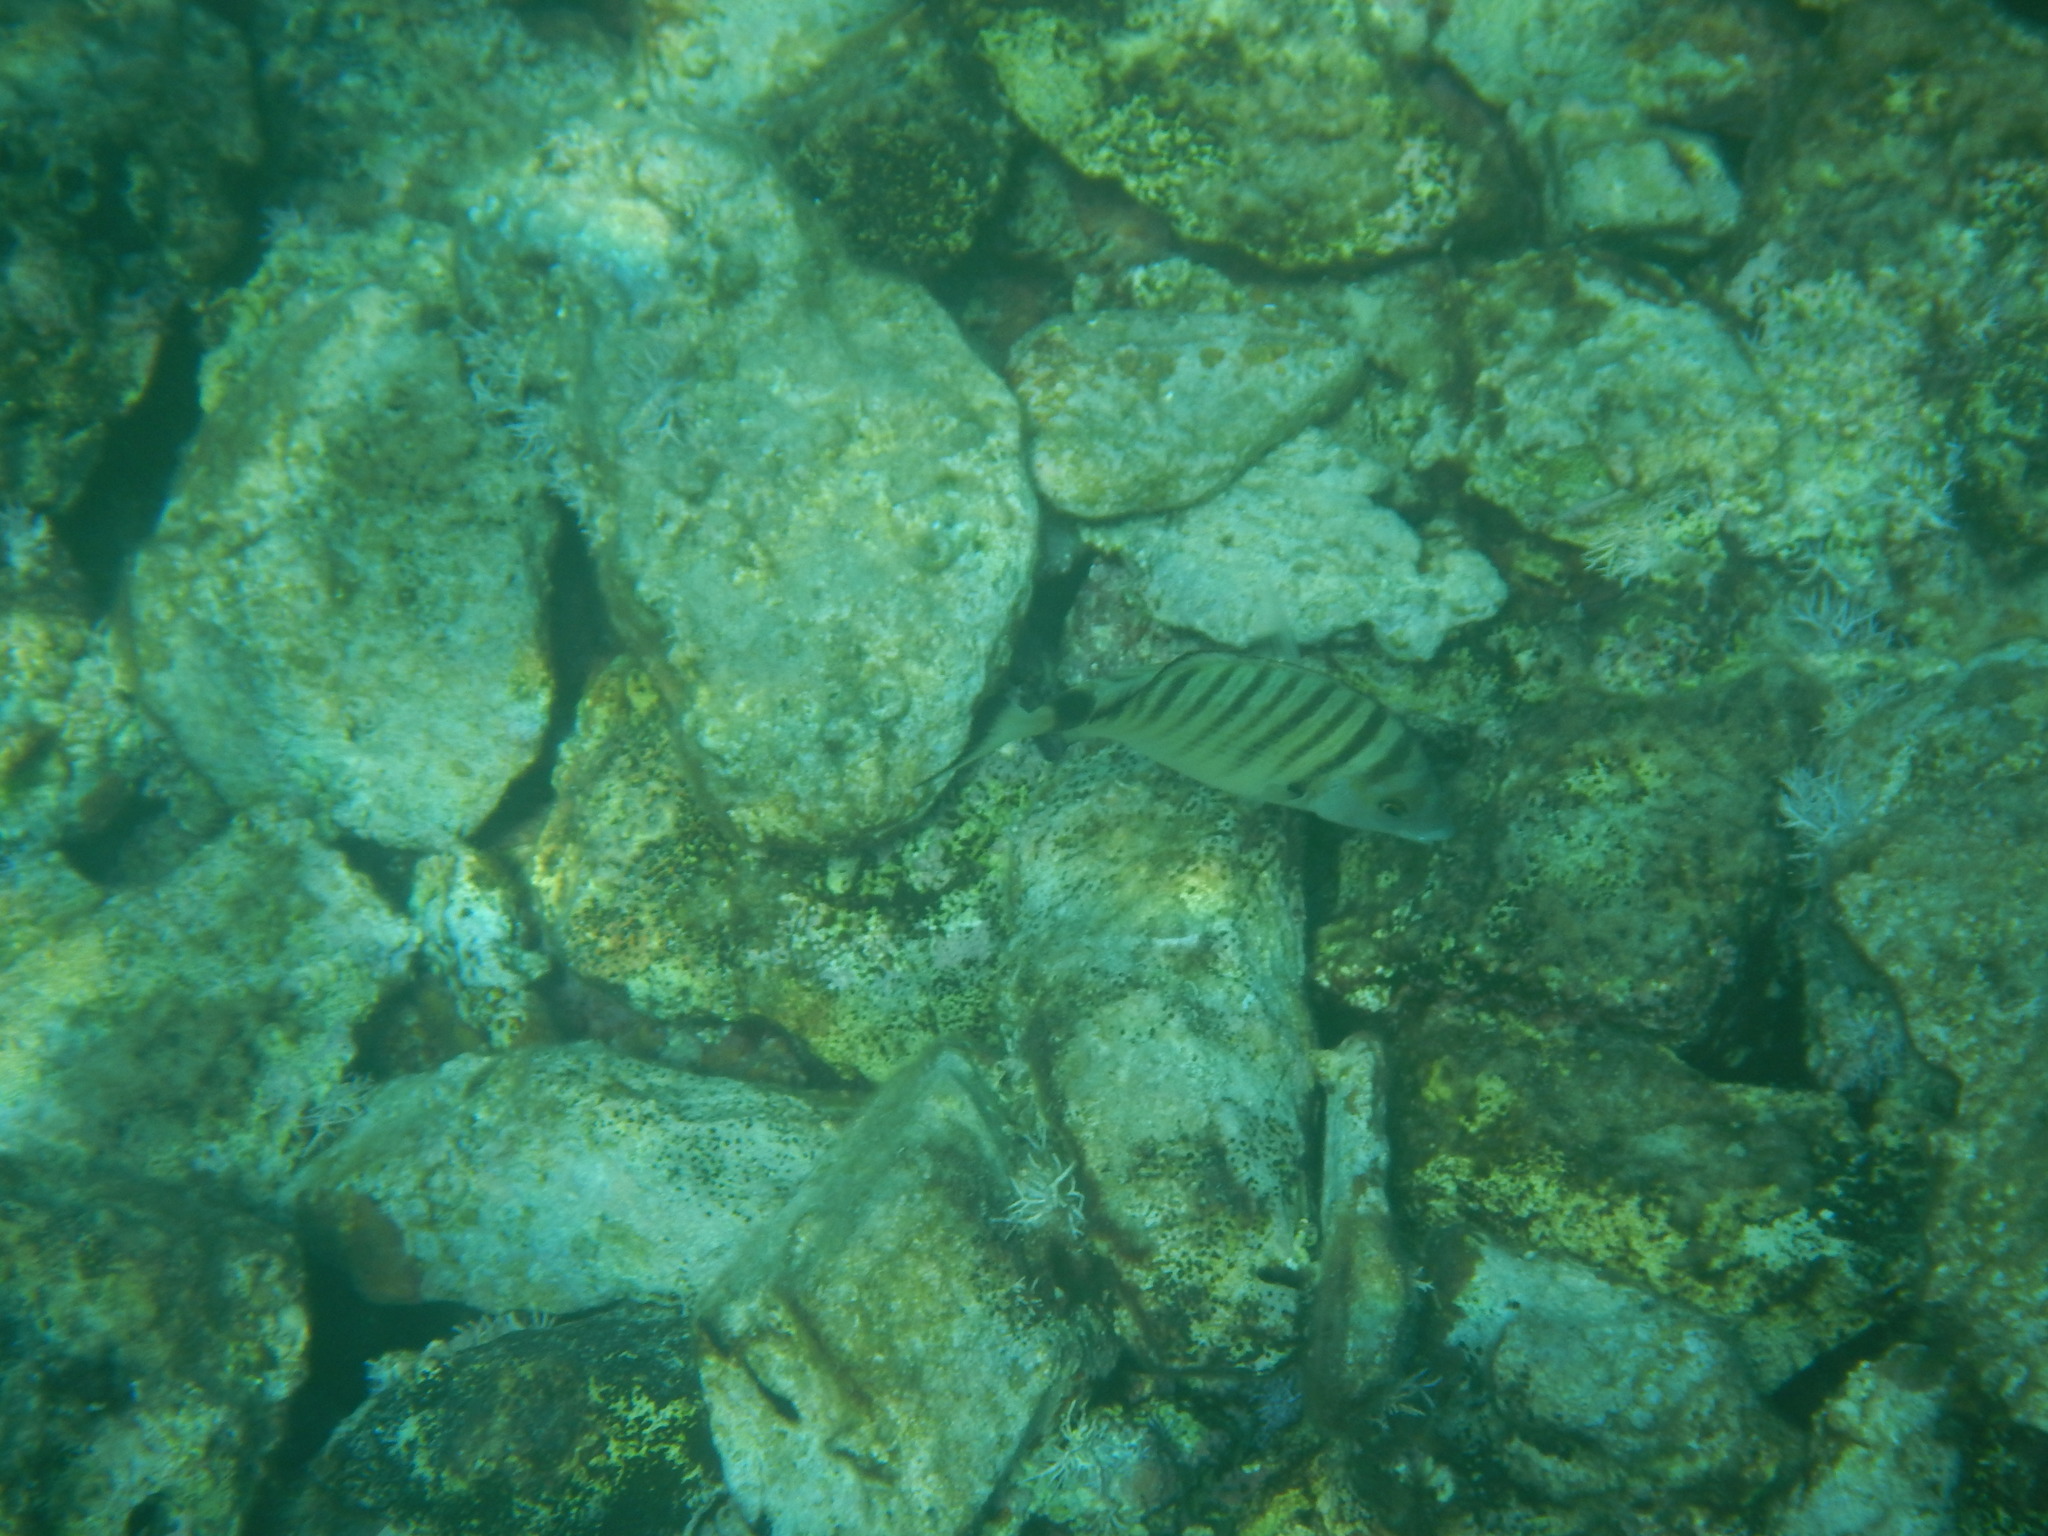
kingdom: Animalia
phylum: Chordata
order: Perciformes
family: Sparidae
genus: Diplodus
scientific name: Diplodus puntazzo
